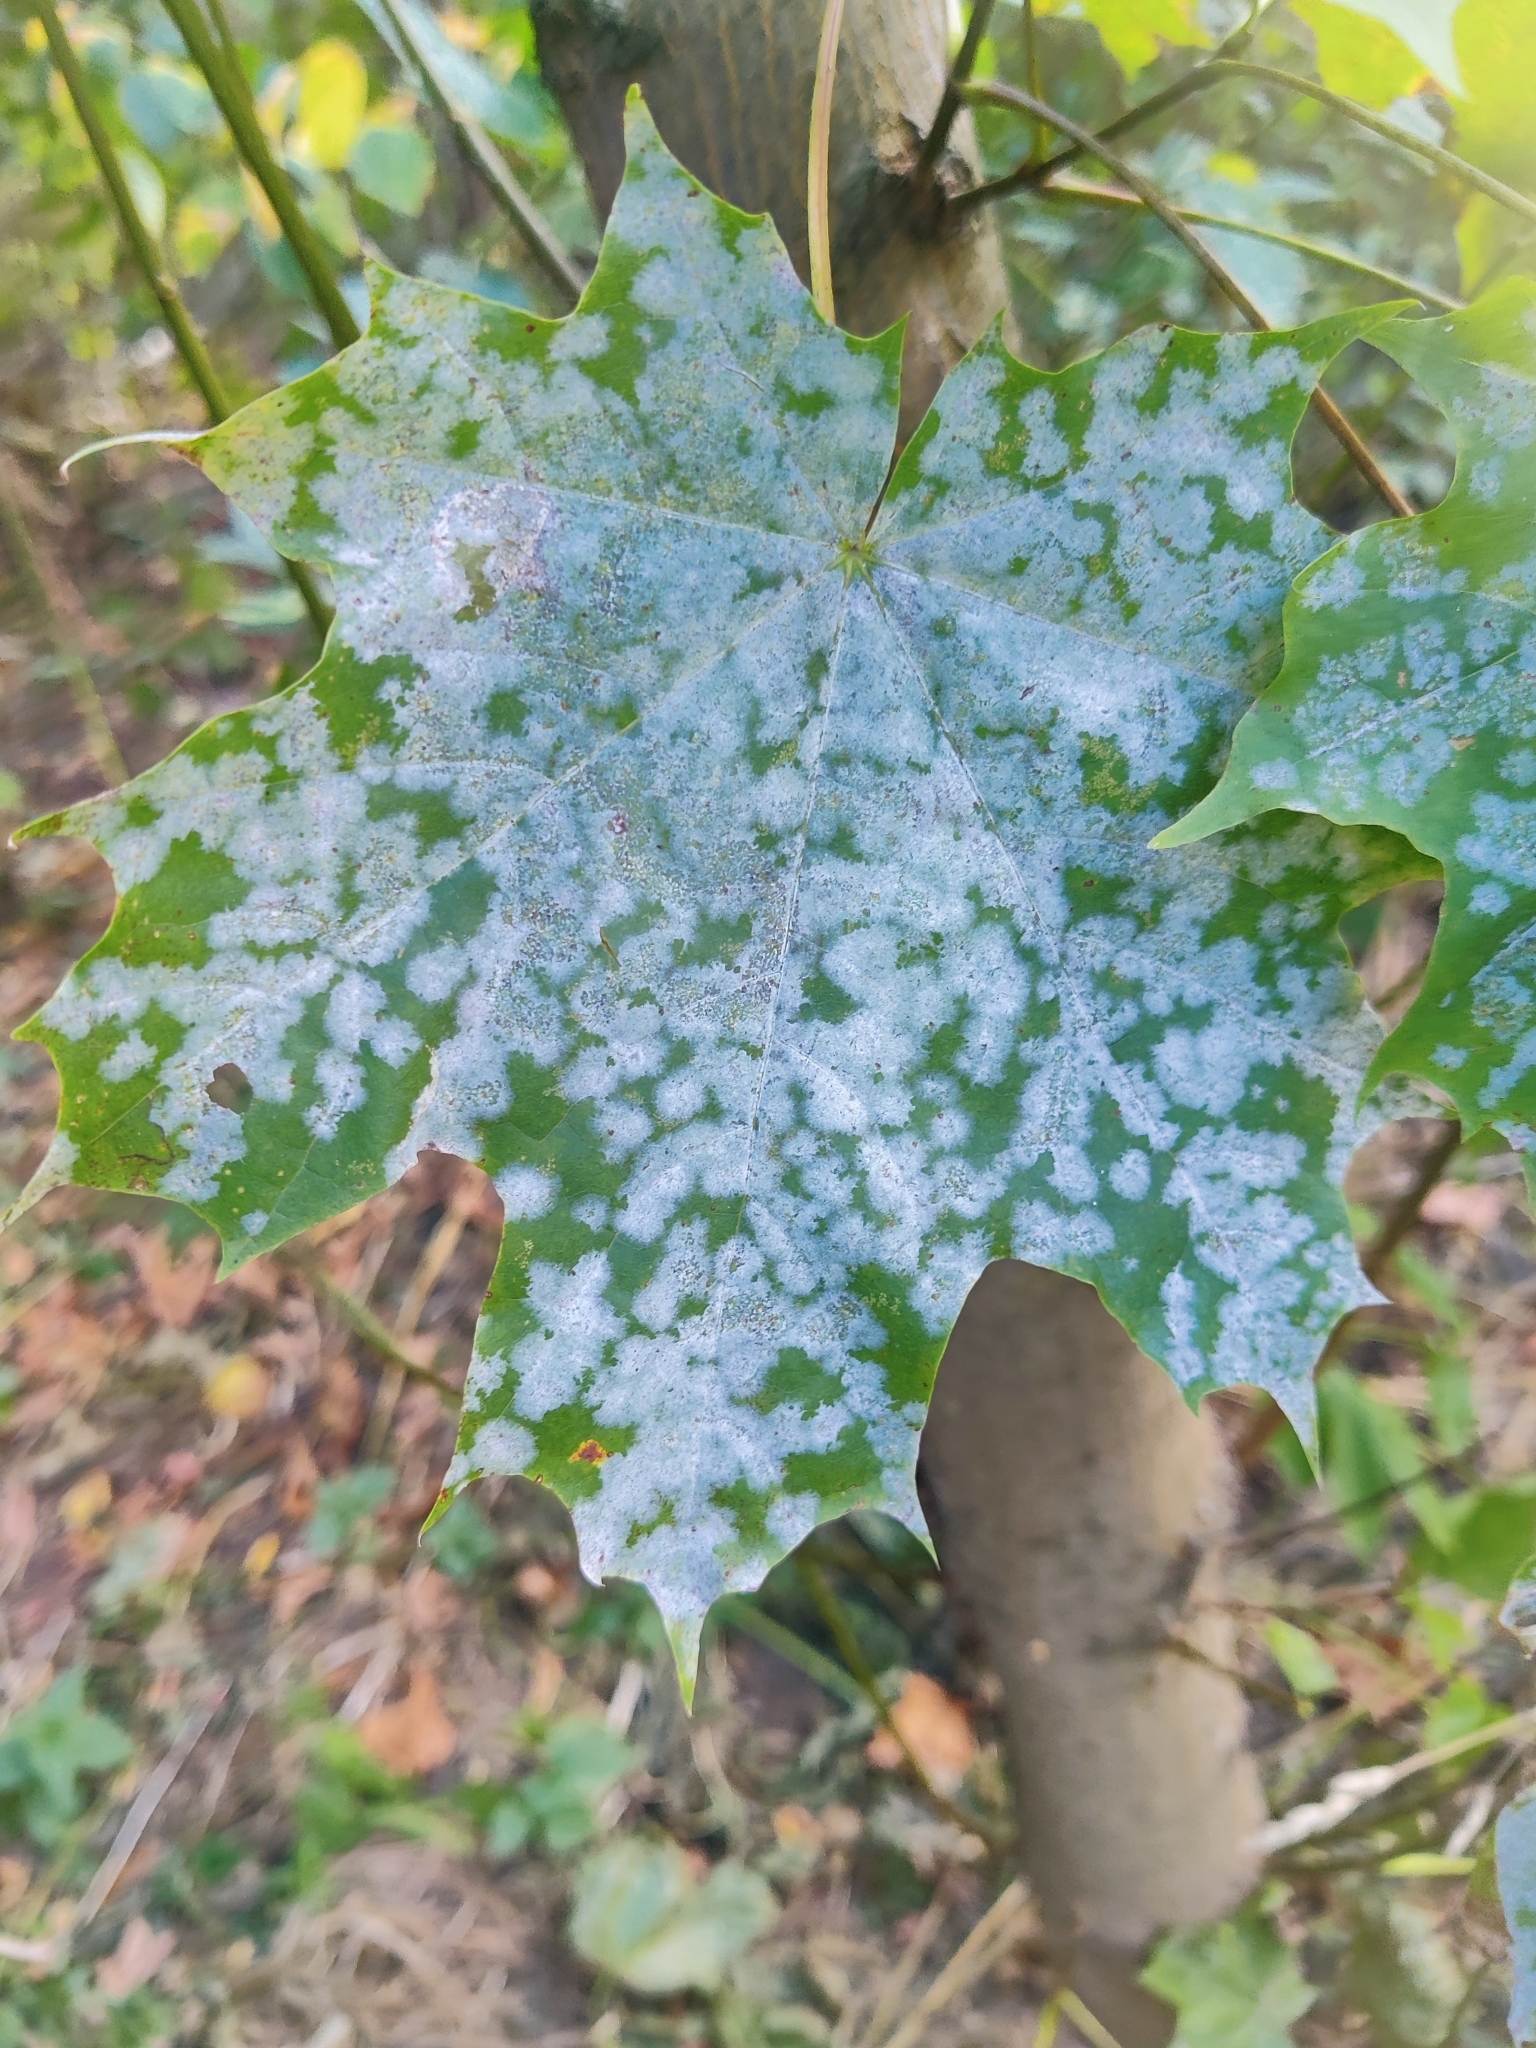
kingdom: Fungi
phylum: Ascomycota
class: Leotiomycetes
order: Helotiales
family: Erysiphaceae
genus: Sawadaea
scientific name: Sawadaea tulasnei
